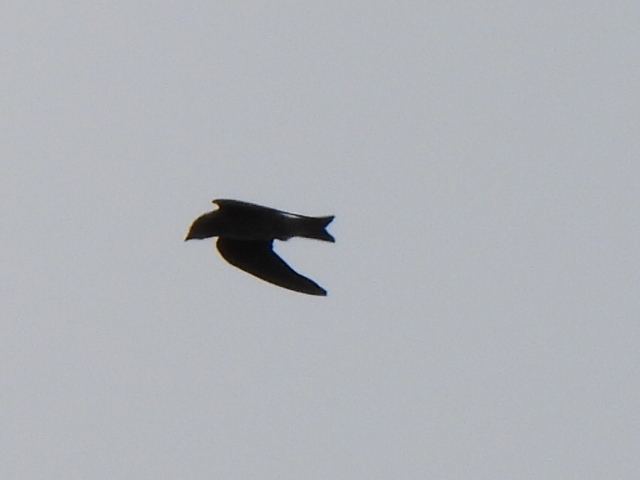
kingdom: Animalia
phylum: Chordata
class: Aves
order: Passeriformes
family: Hirundinidae
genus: Progne
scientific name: Progne subis
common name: Purple martin
